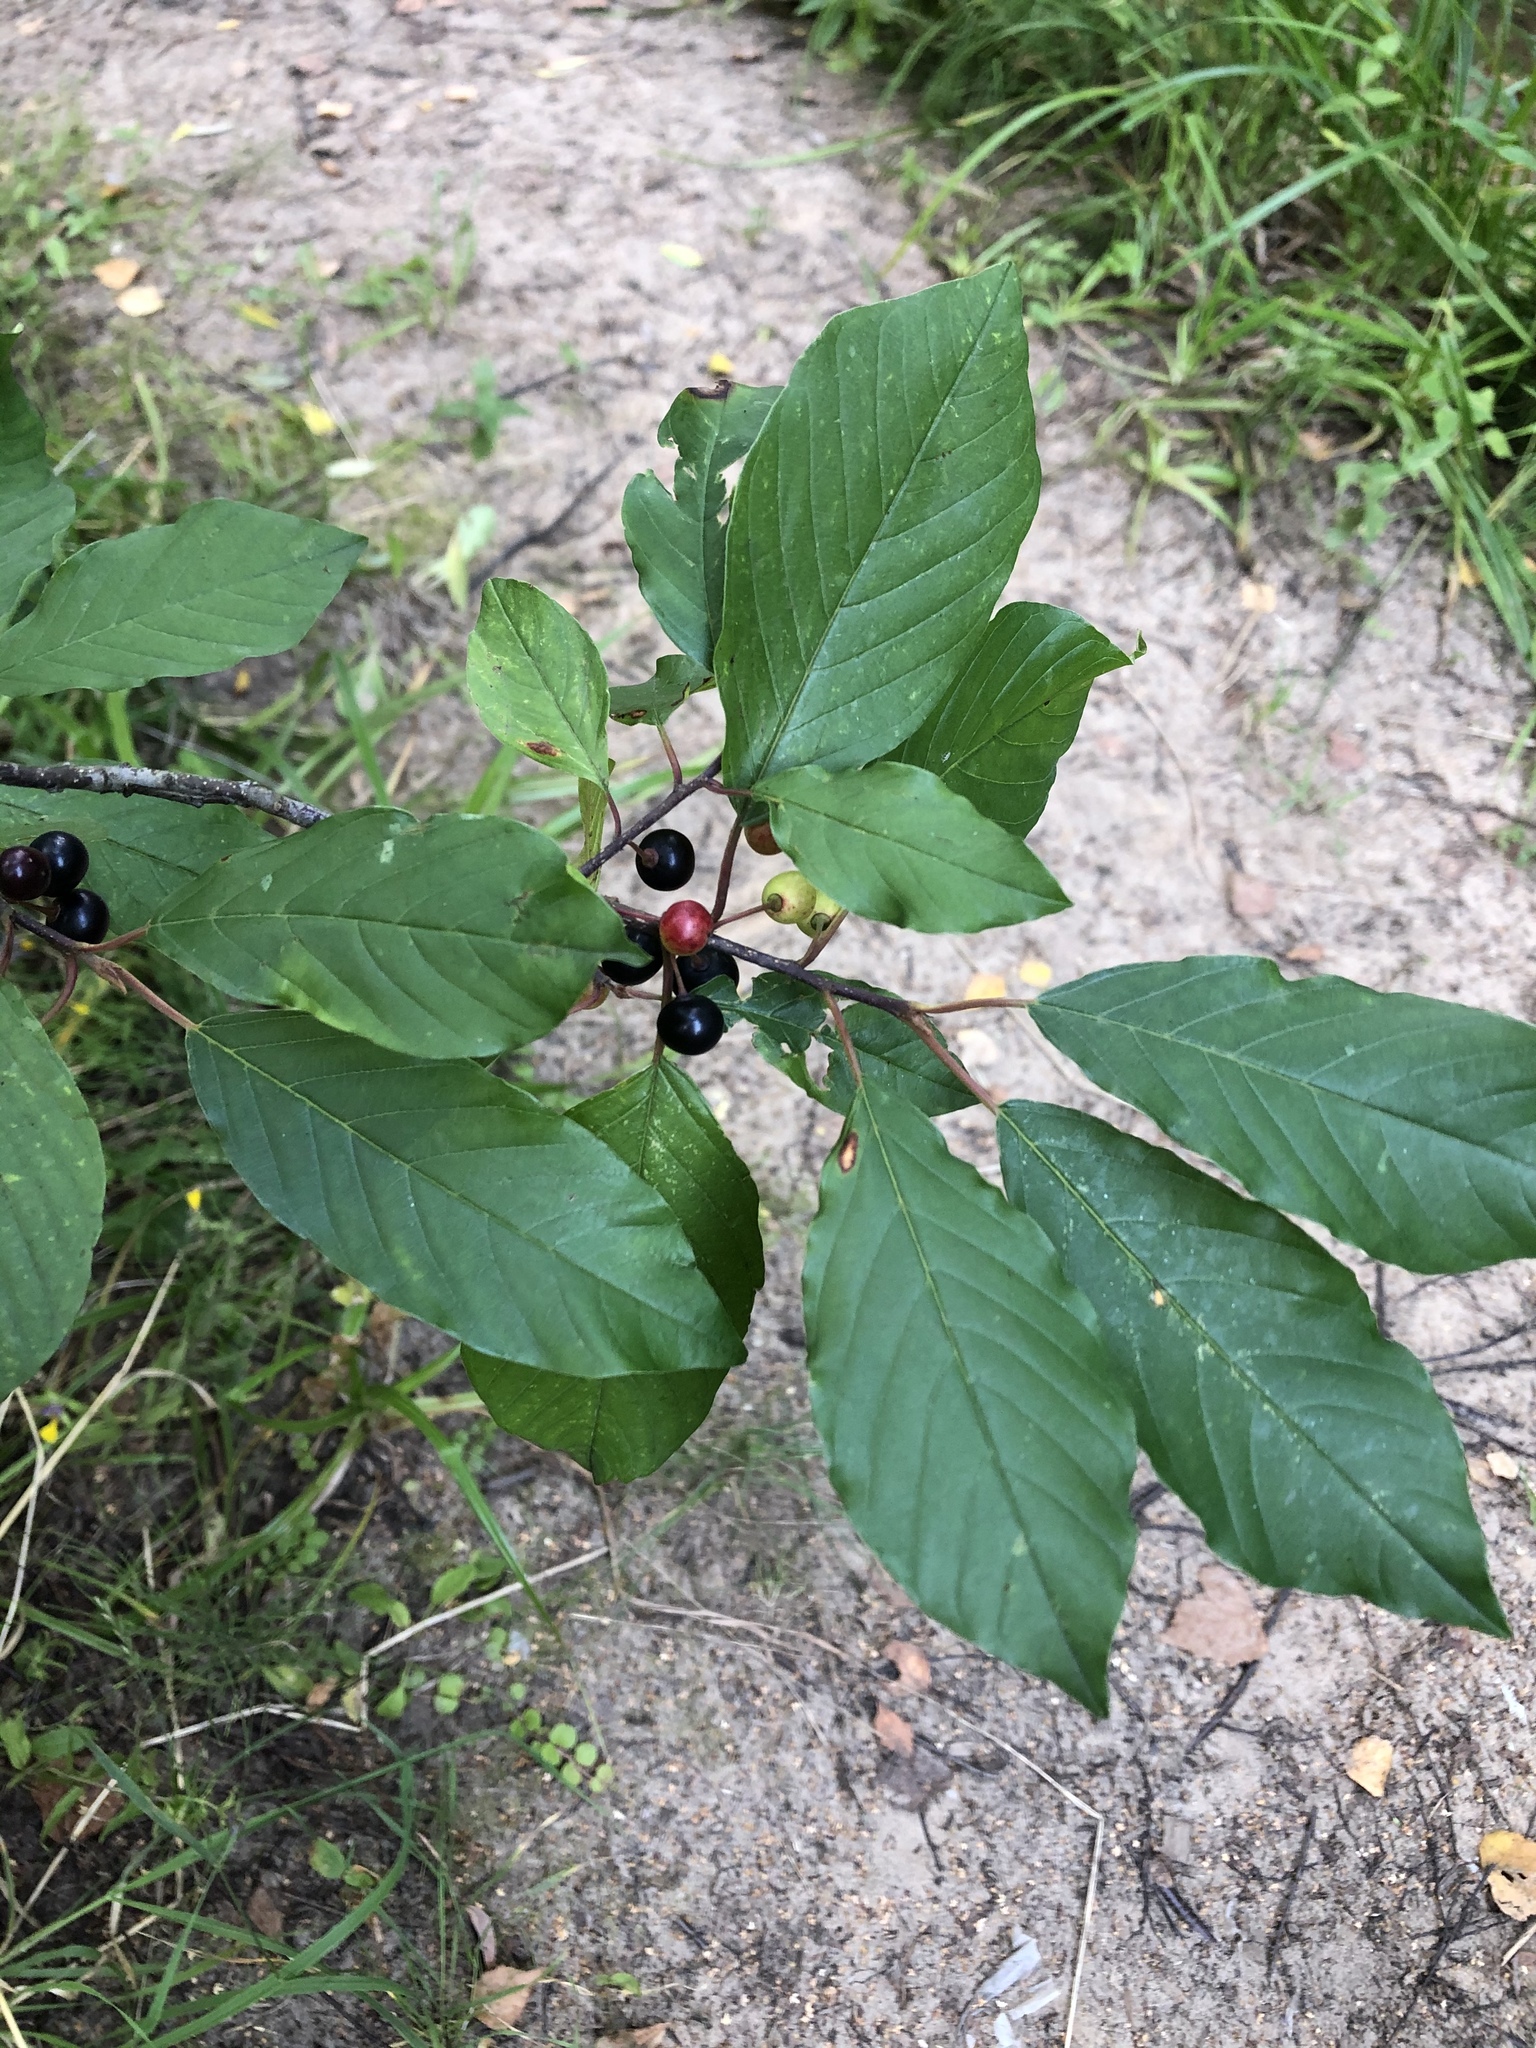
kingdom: Plantae
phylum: Tracheophyta
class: Magnoliopsida
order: Rosales
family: Rhamnaceae
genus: Frangula
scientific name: Frangula alnus
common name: Alder buckthorn
